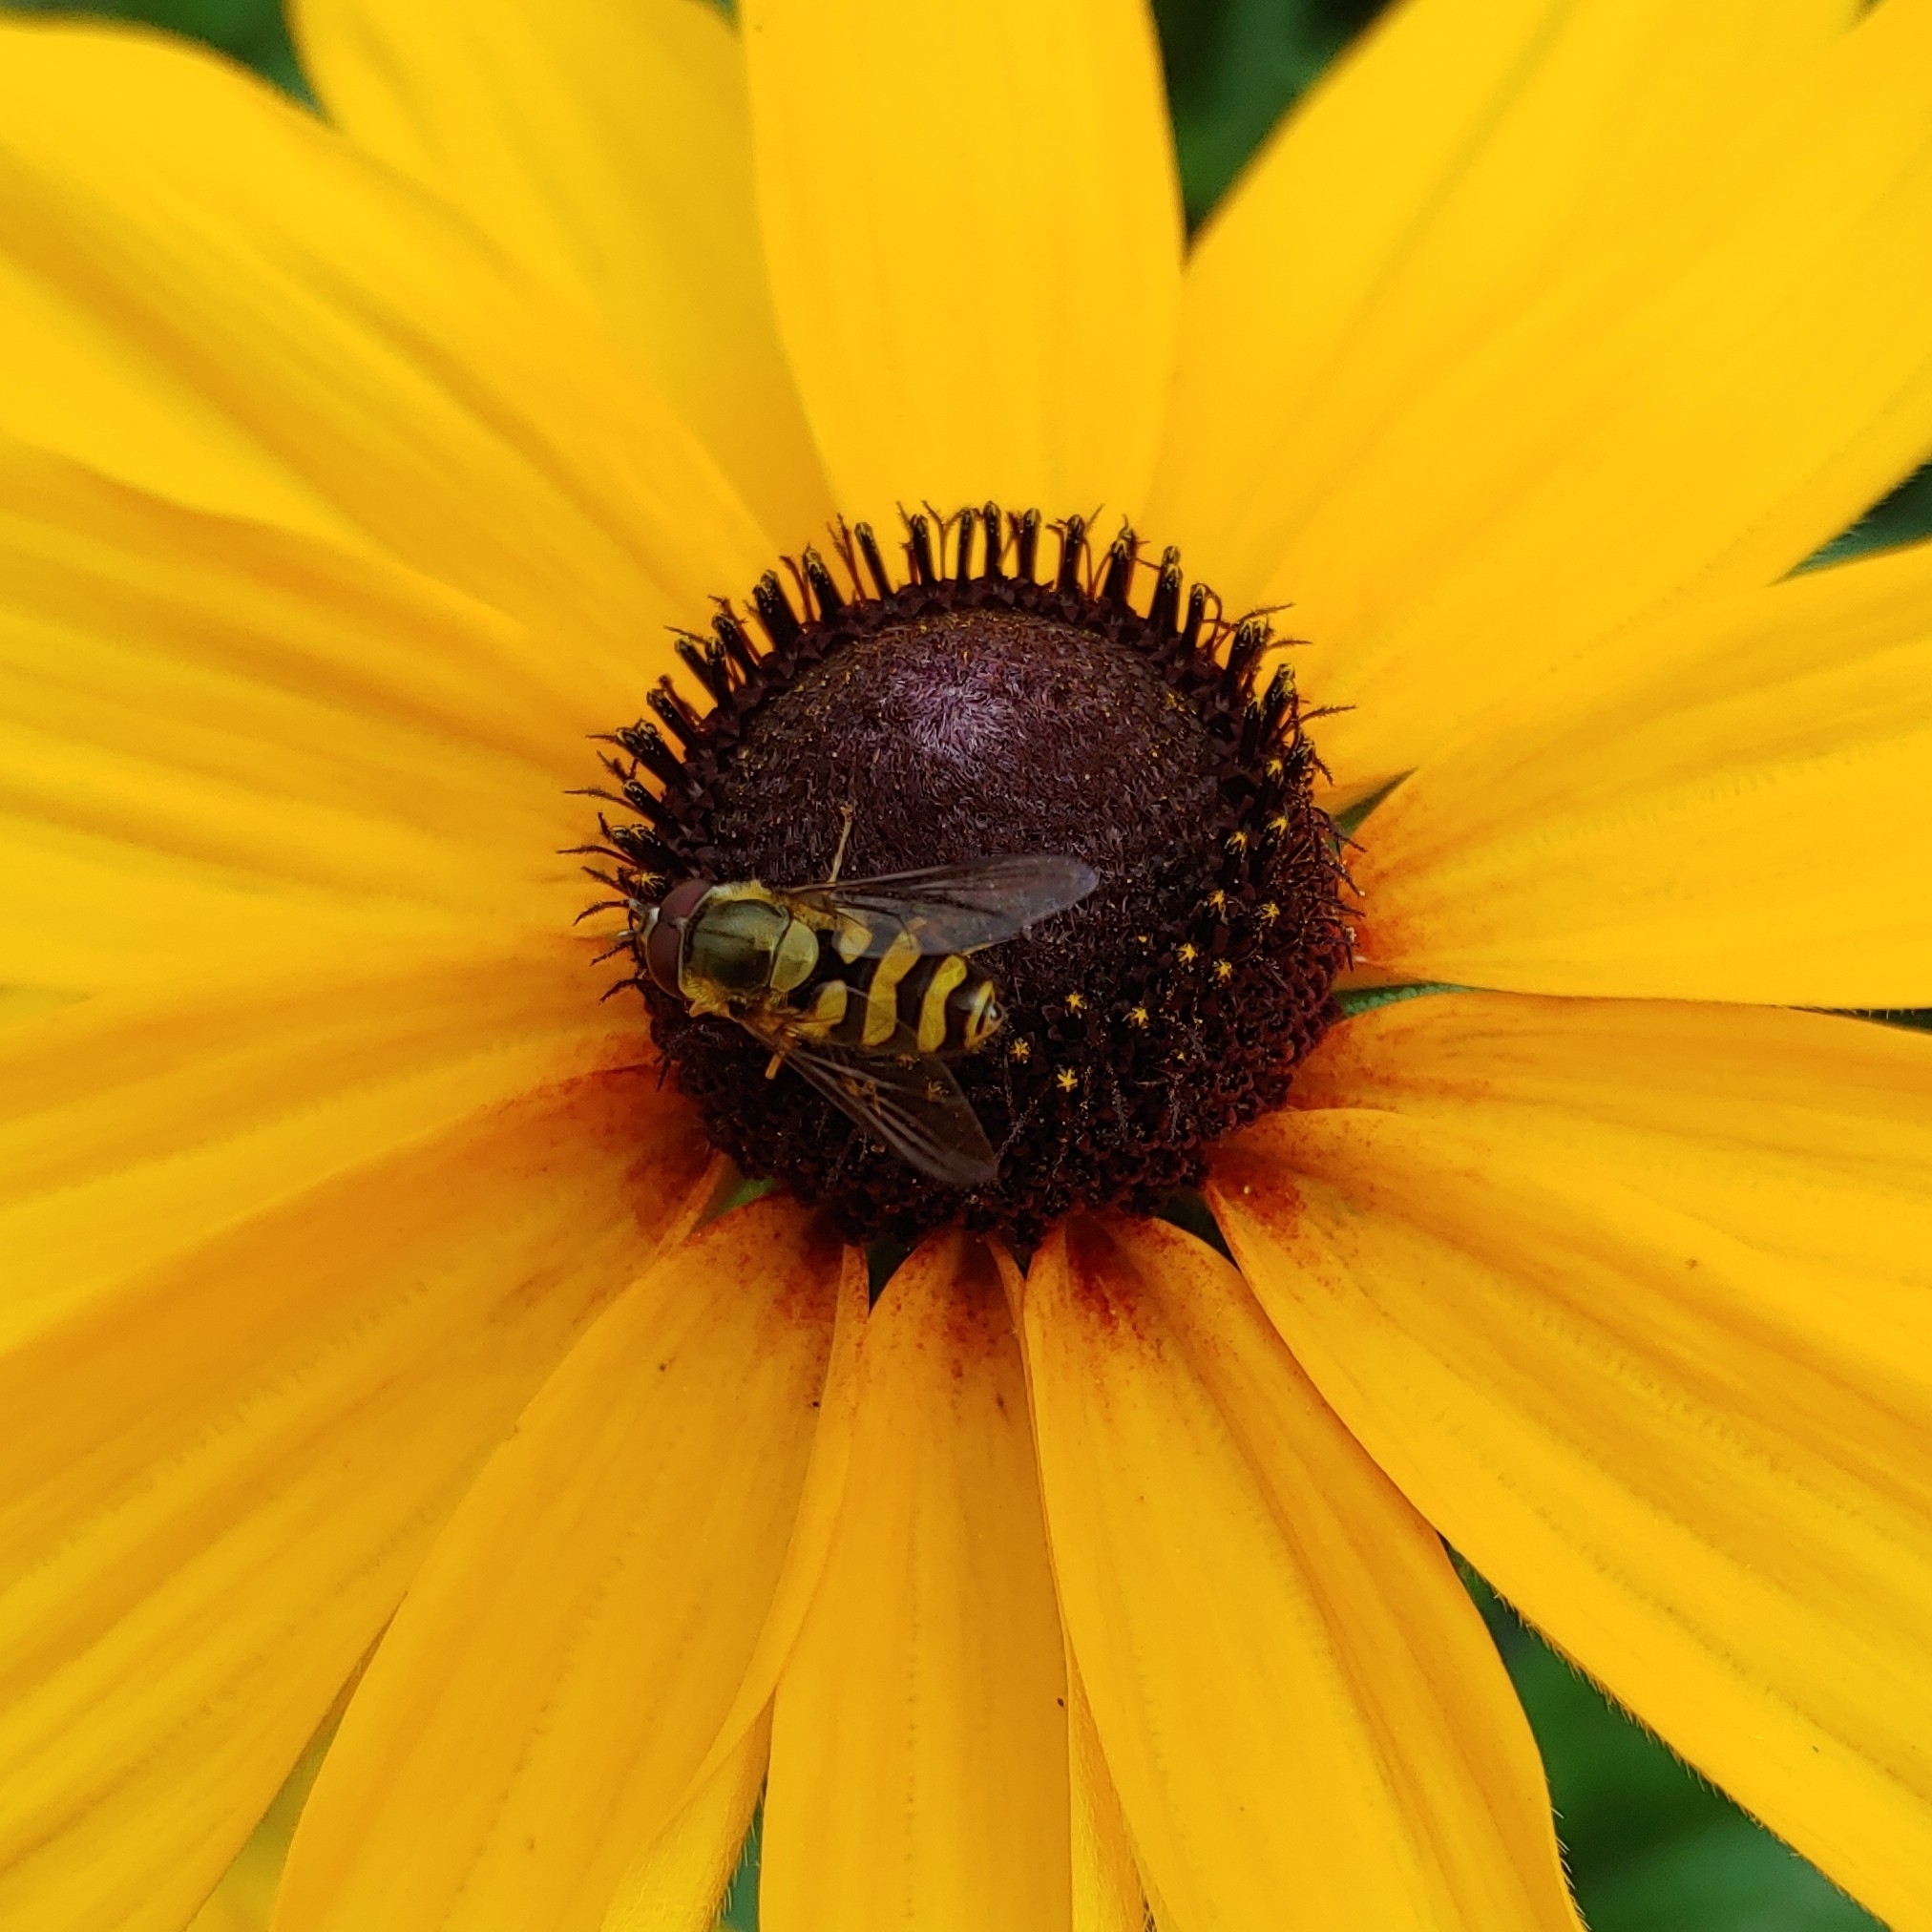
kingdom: Animalia
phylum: Arthropoda
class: Insecta
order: Diptera
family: Syrphidae
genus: Syrphus
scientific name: Syrphus
